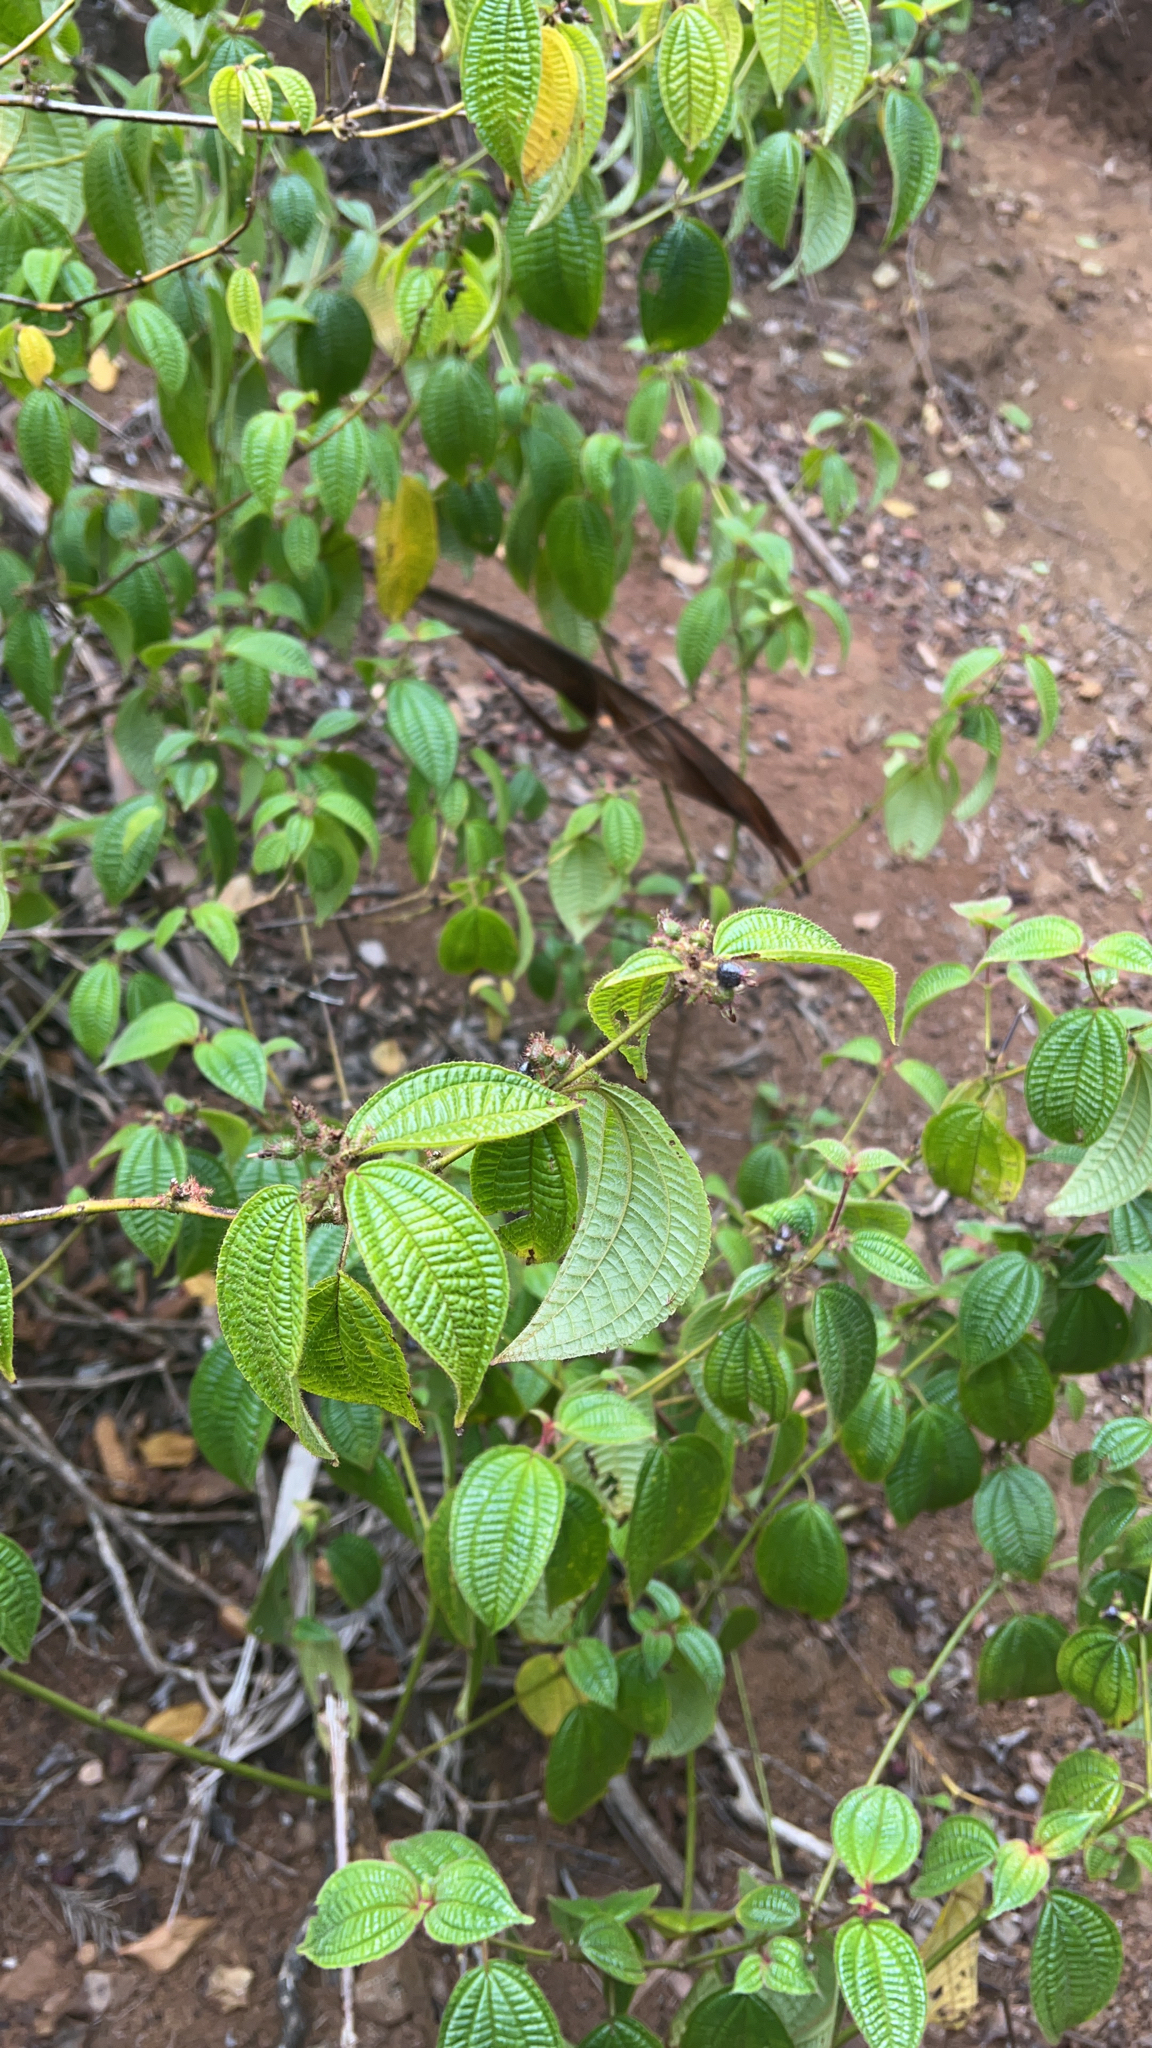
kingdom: Plantae
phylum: Tracheophyta
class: Magnoliopsida
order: Myrtales
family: Melastomataceae
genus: Miconia
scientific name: Miconia crenata
